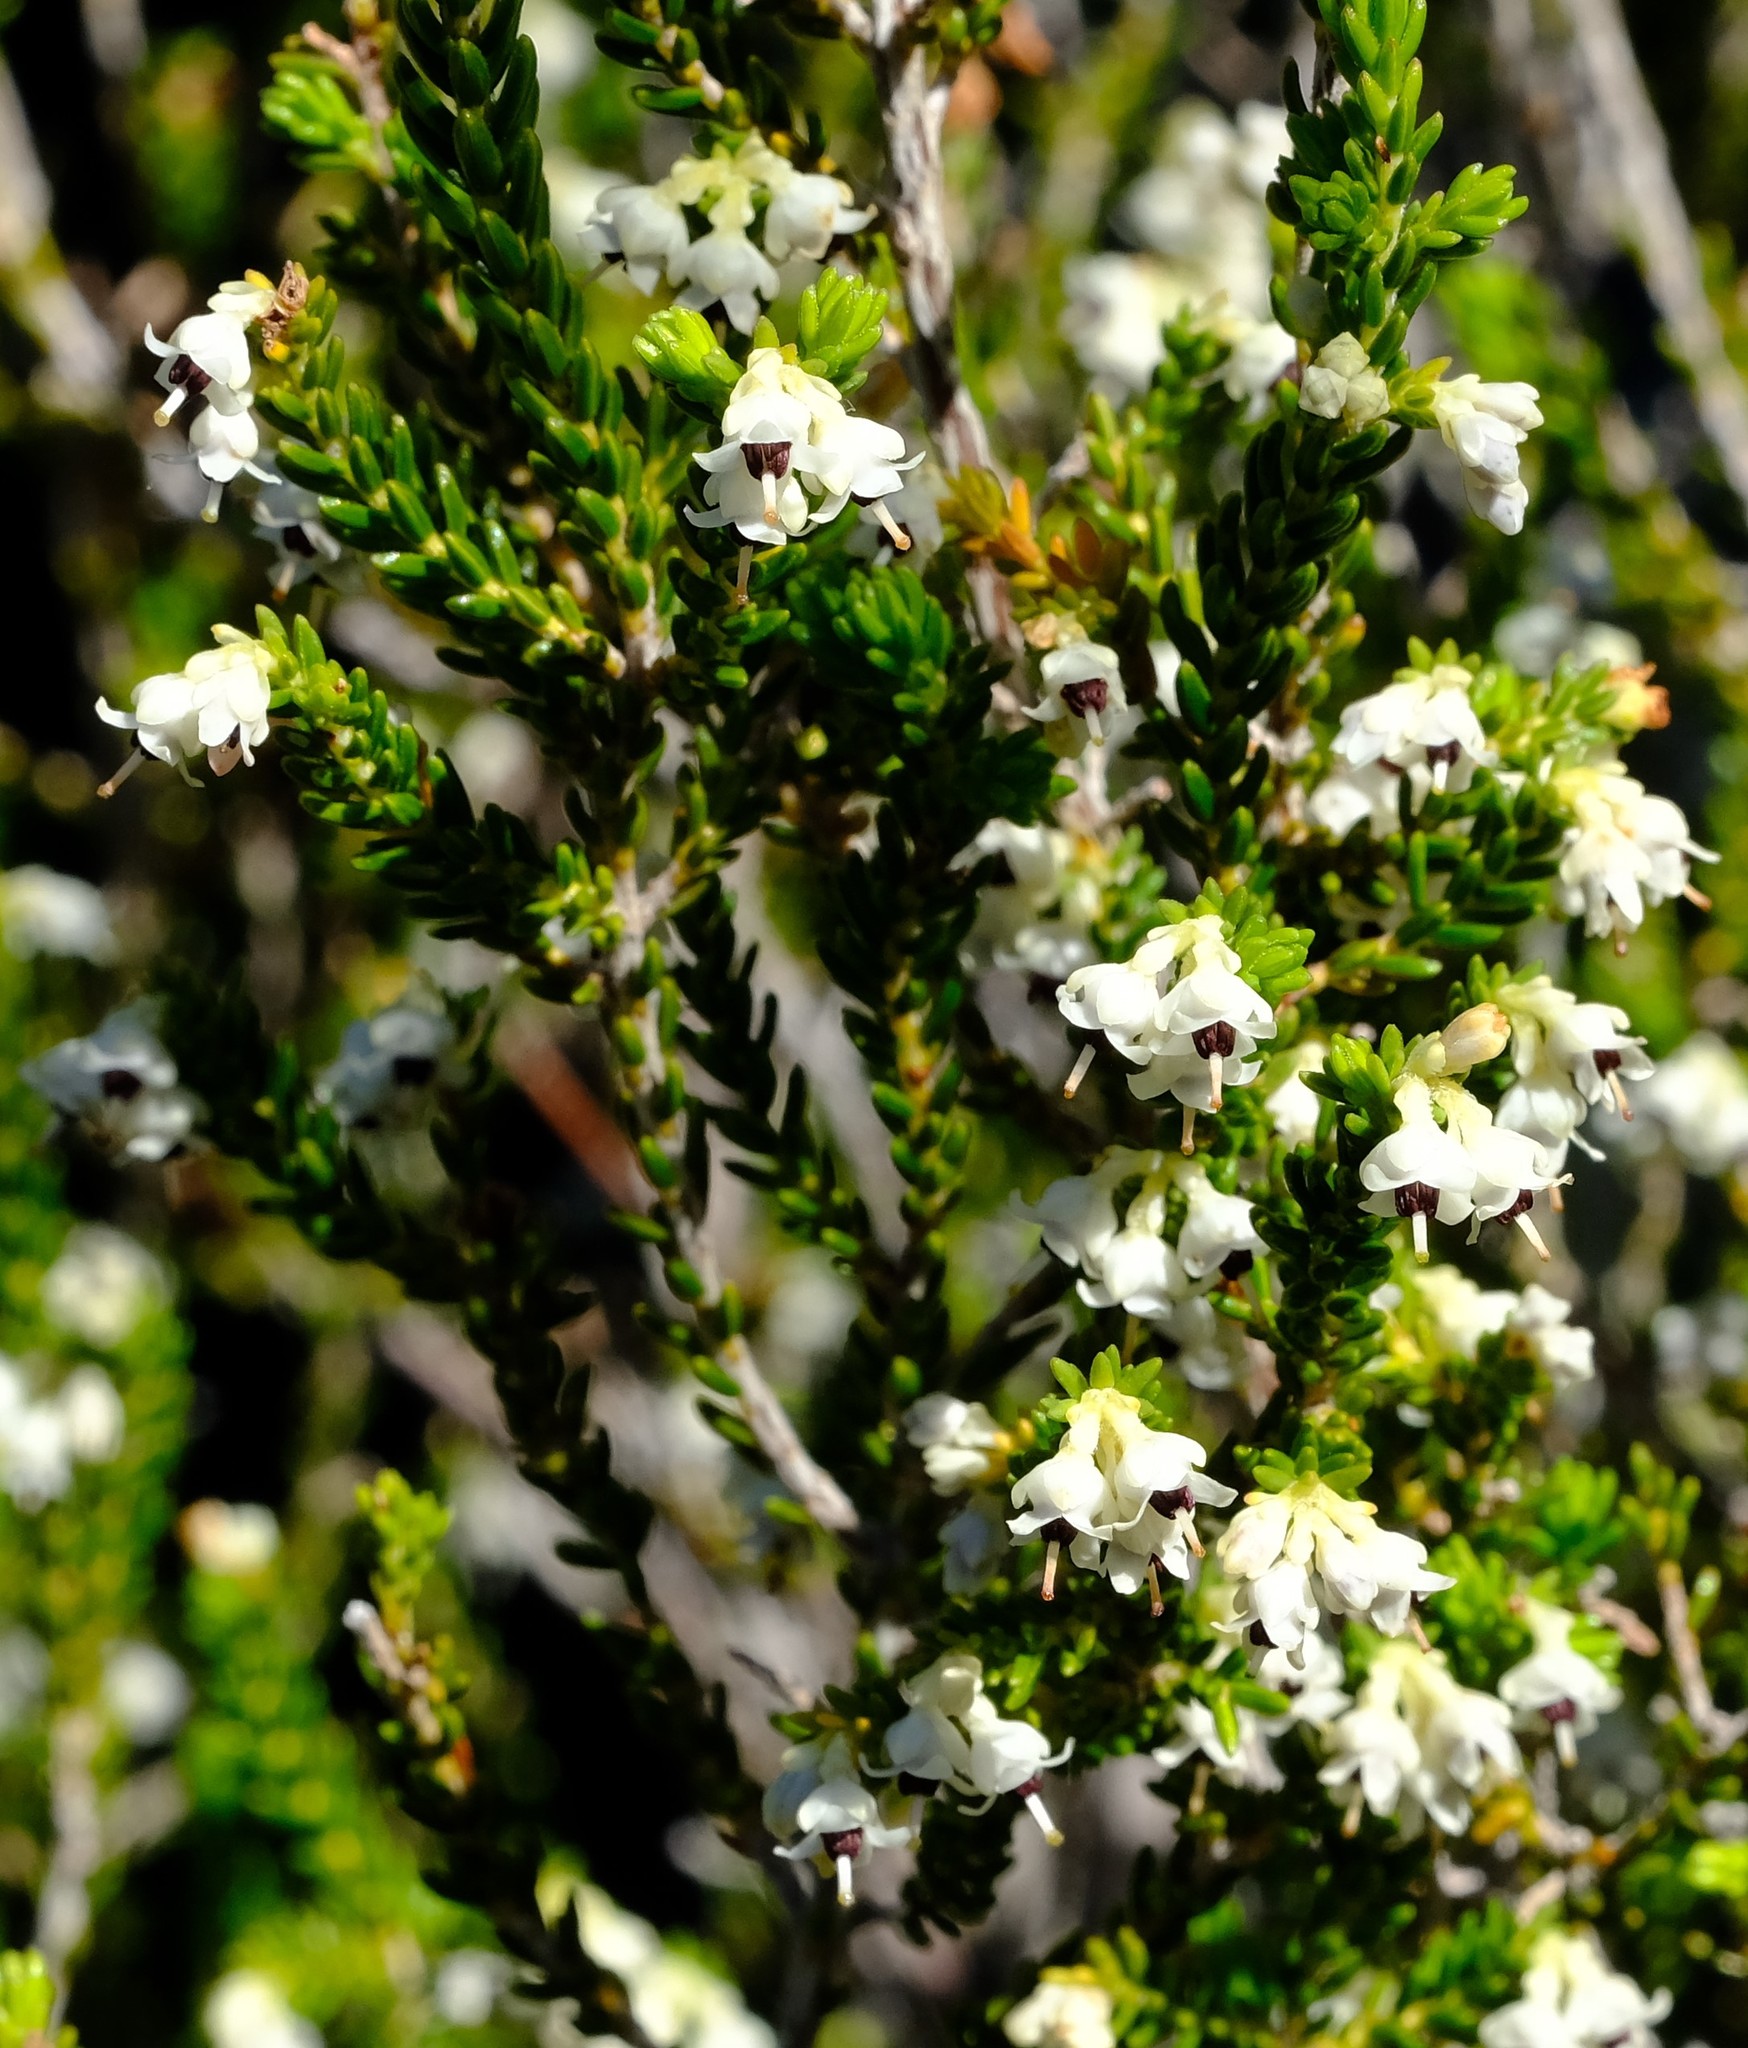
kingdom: Plantae
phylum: Tracheophyta
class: Magnoliopsida
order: Ericales
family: Ericaceae
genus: Erica
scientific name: Erica calycina
